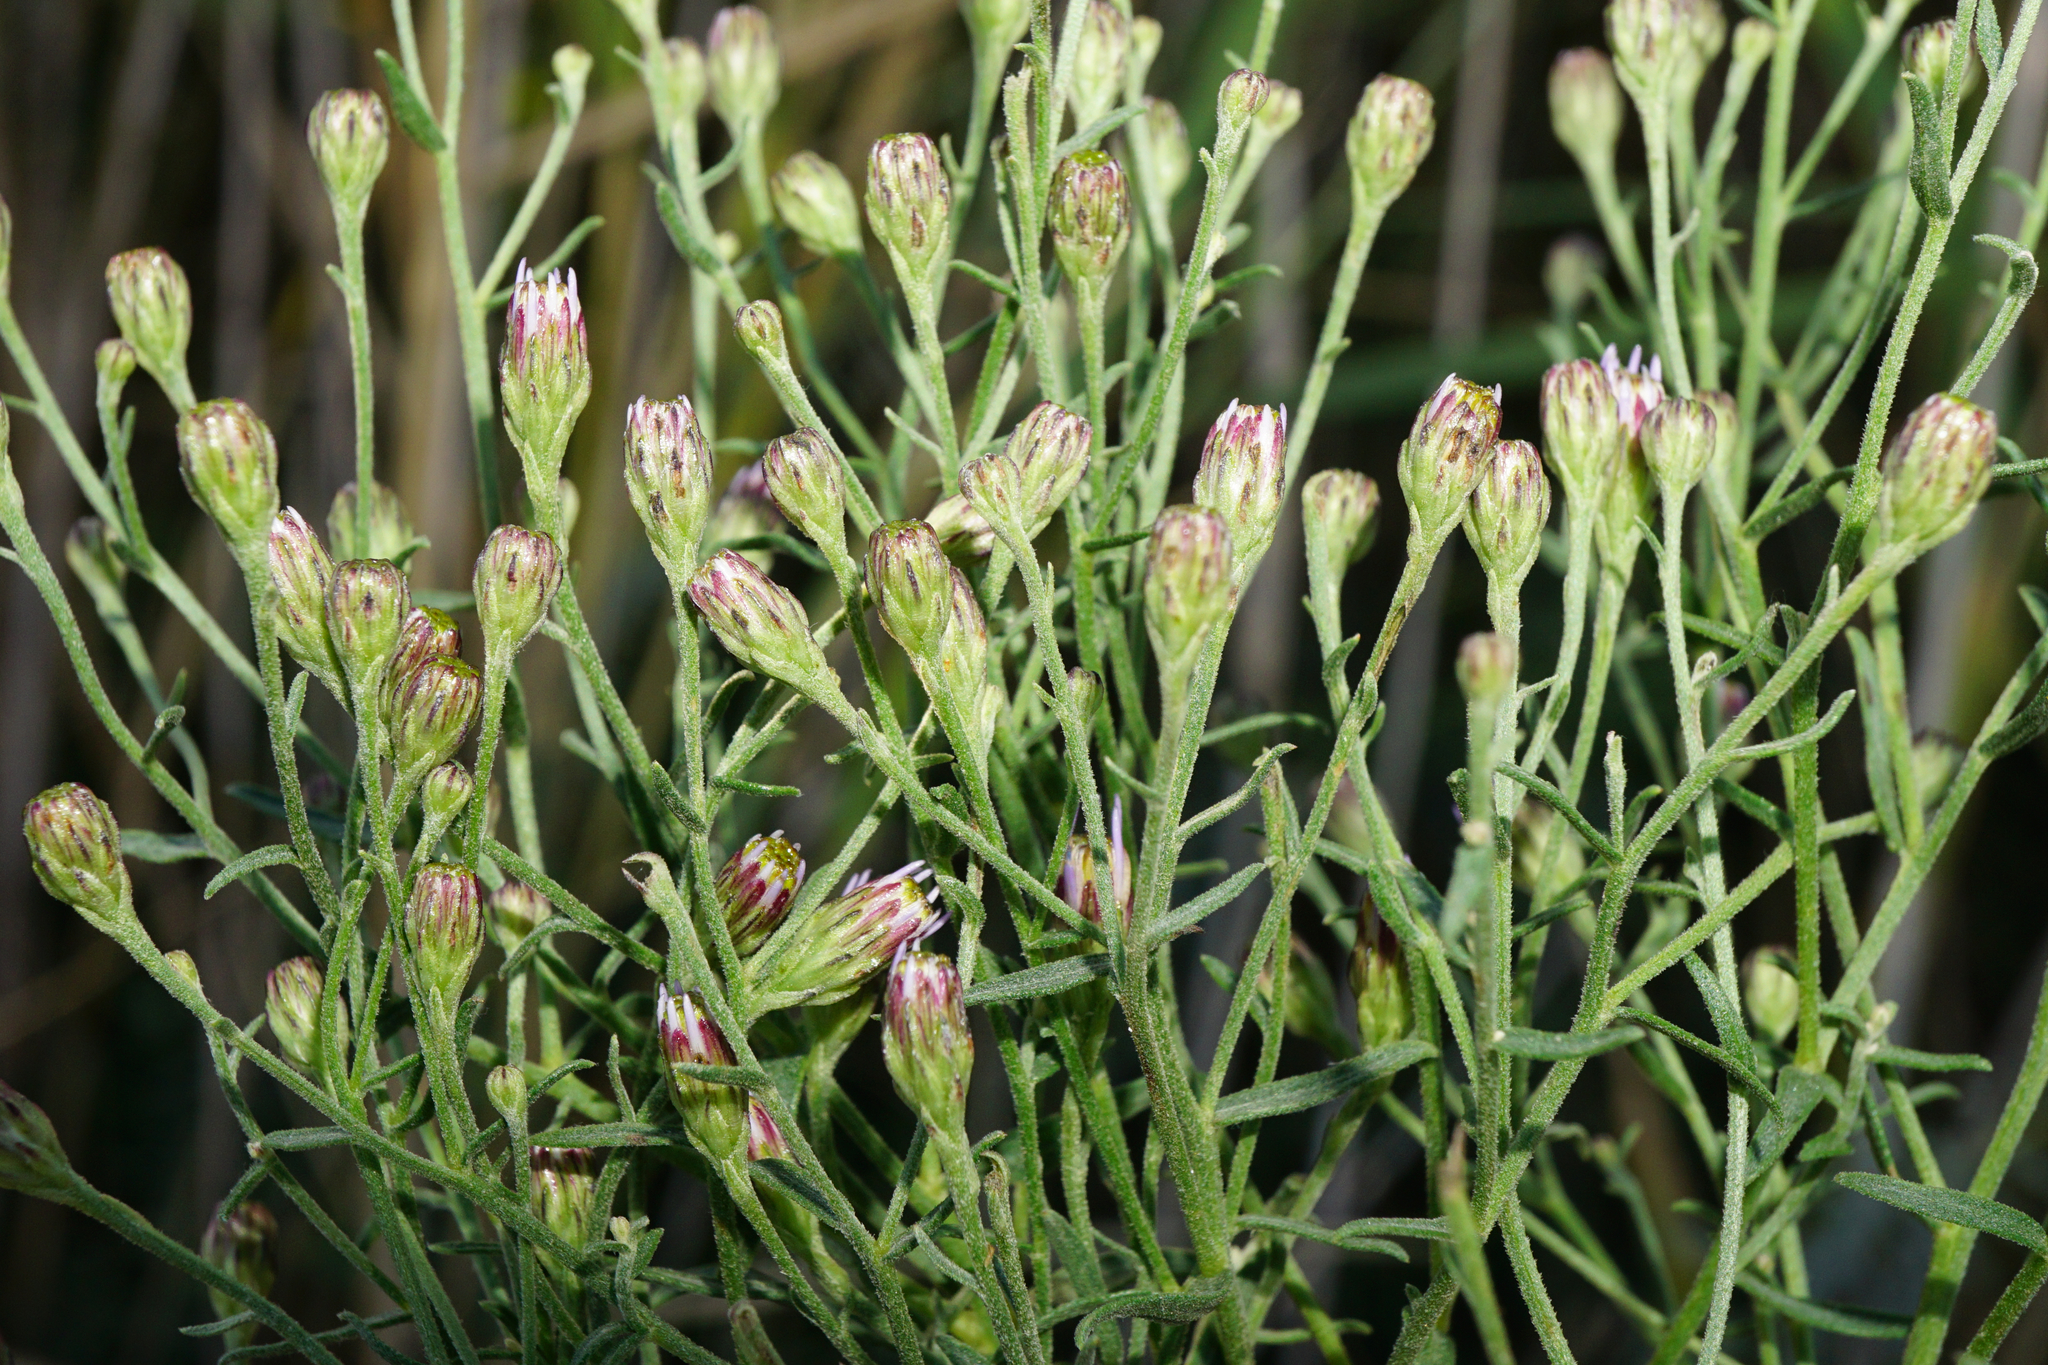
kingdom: Plantae
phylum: Tracheophyta
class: Magnoliopsida
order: Asterales
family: Asteraceae
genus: Galatella
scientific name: Galatella cana
